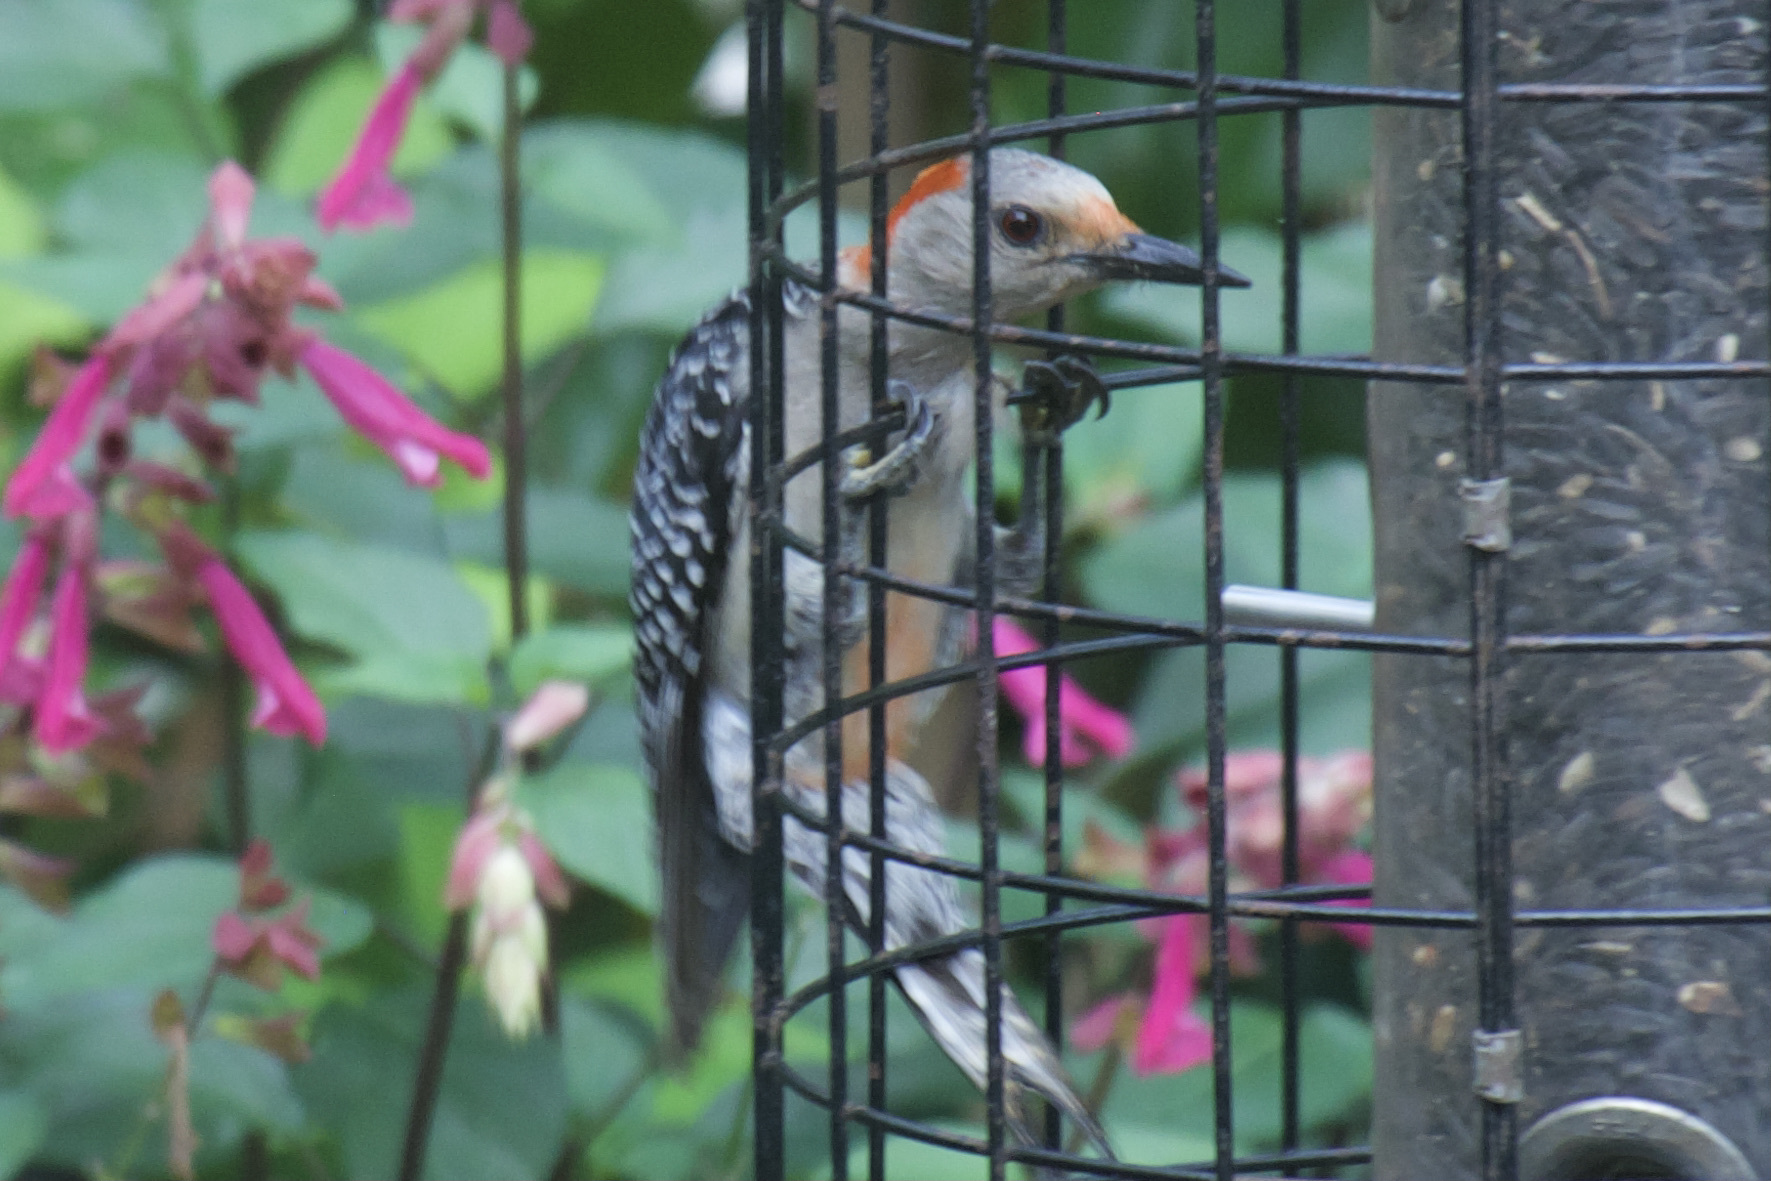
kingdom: Animalia
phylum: Chordata
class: Aves
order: Piciformes
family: Picidae
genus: Melanerpes
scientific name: Melanerpes carolinus
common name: Red-bellied woodpecker
